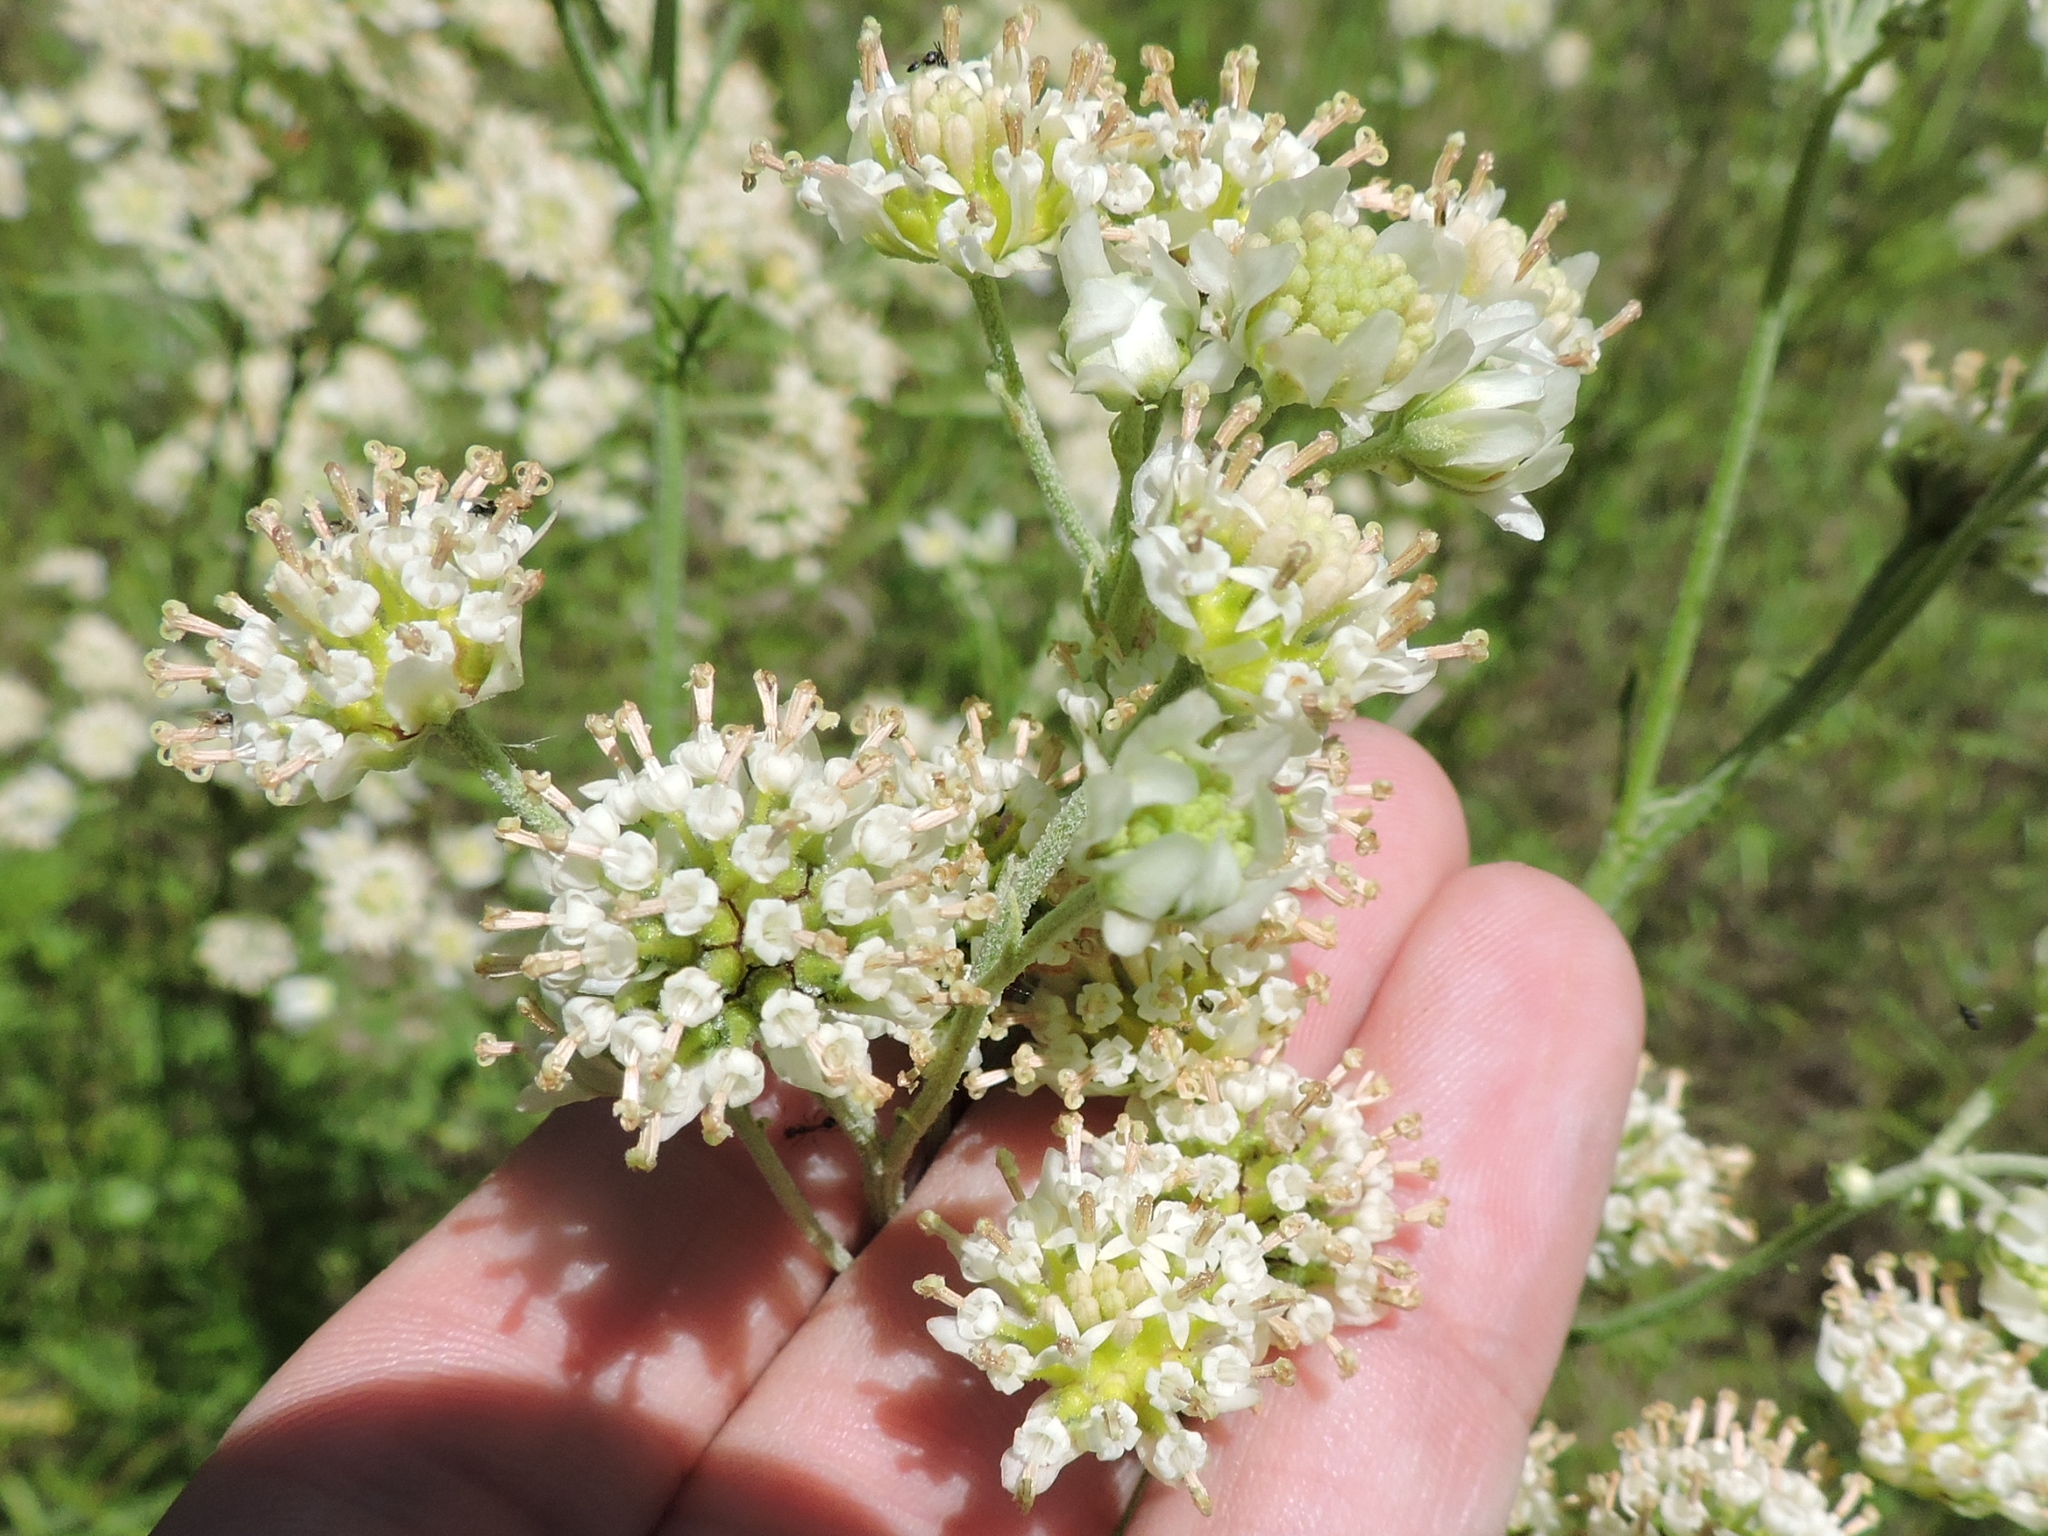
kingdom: Plantae
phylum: Tracheophyta
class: Magnoliopsida
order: Asterales
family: Asteraceae
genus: Hymenopappus
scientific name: Hymenopappus scabiosaeus
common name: Carolina woollywhite
